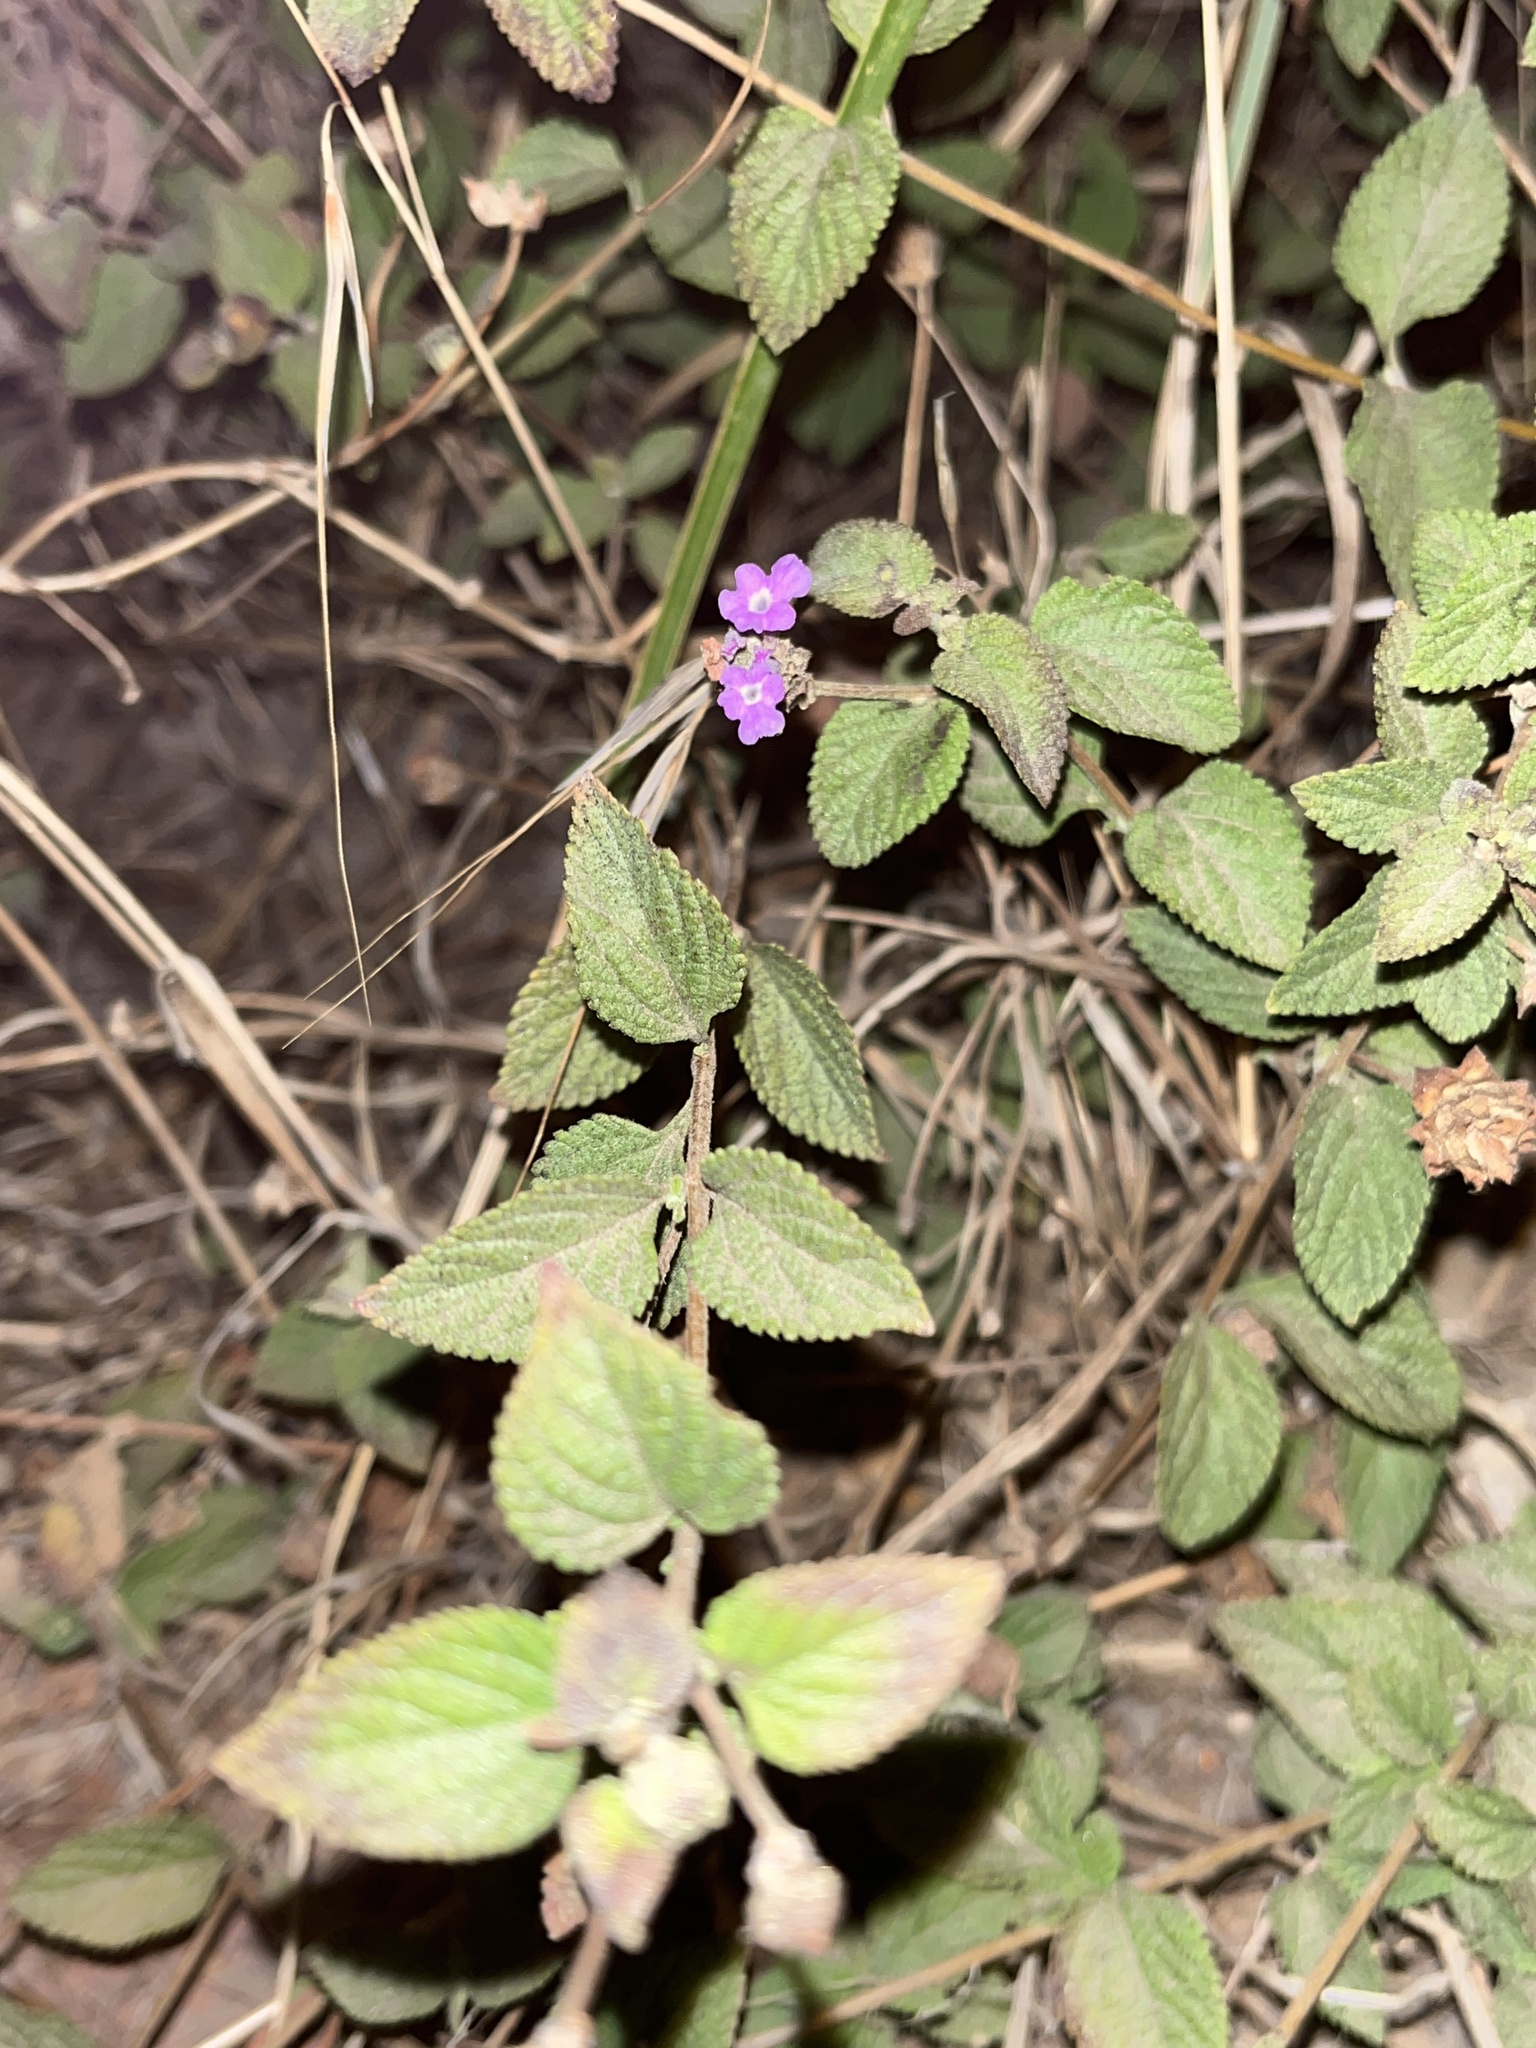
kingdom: Plantae
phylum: Tracheophyta
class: Magnoliopsida
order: Lamiales
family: Verbenaceae
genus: Lantana
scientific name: Lantana montevidensis
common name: Trailing shrubverbena
